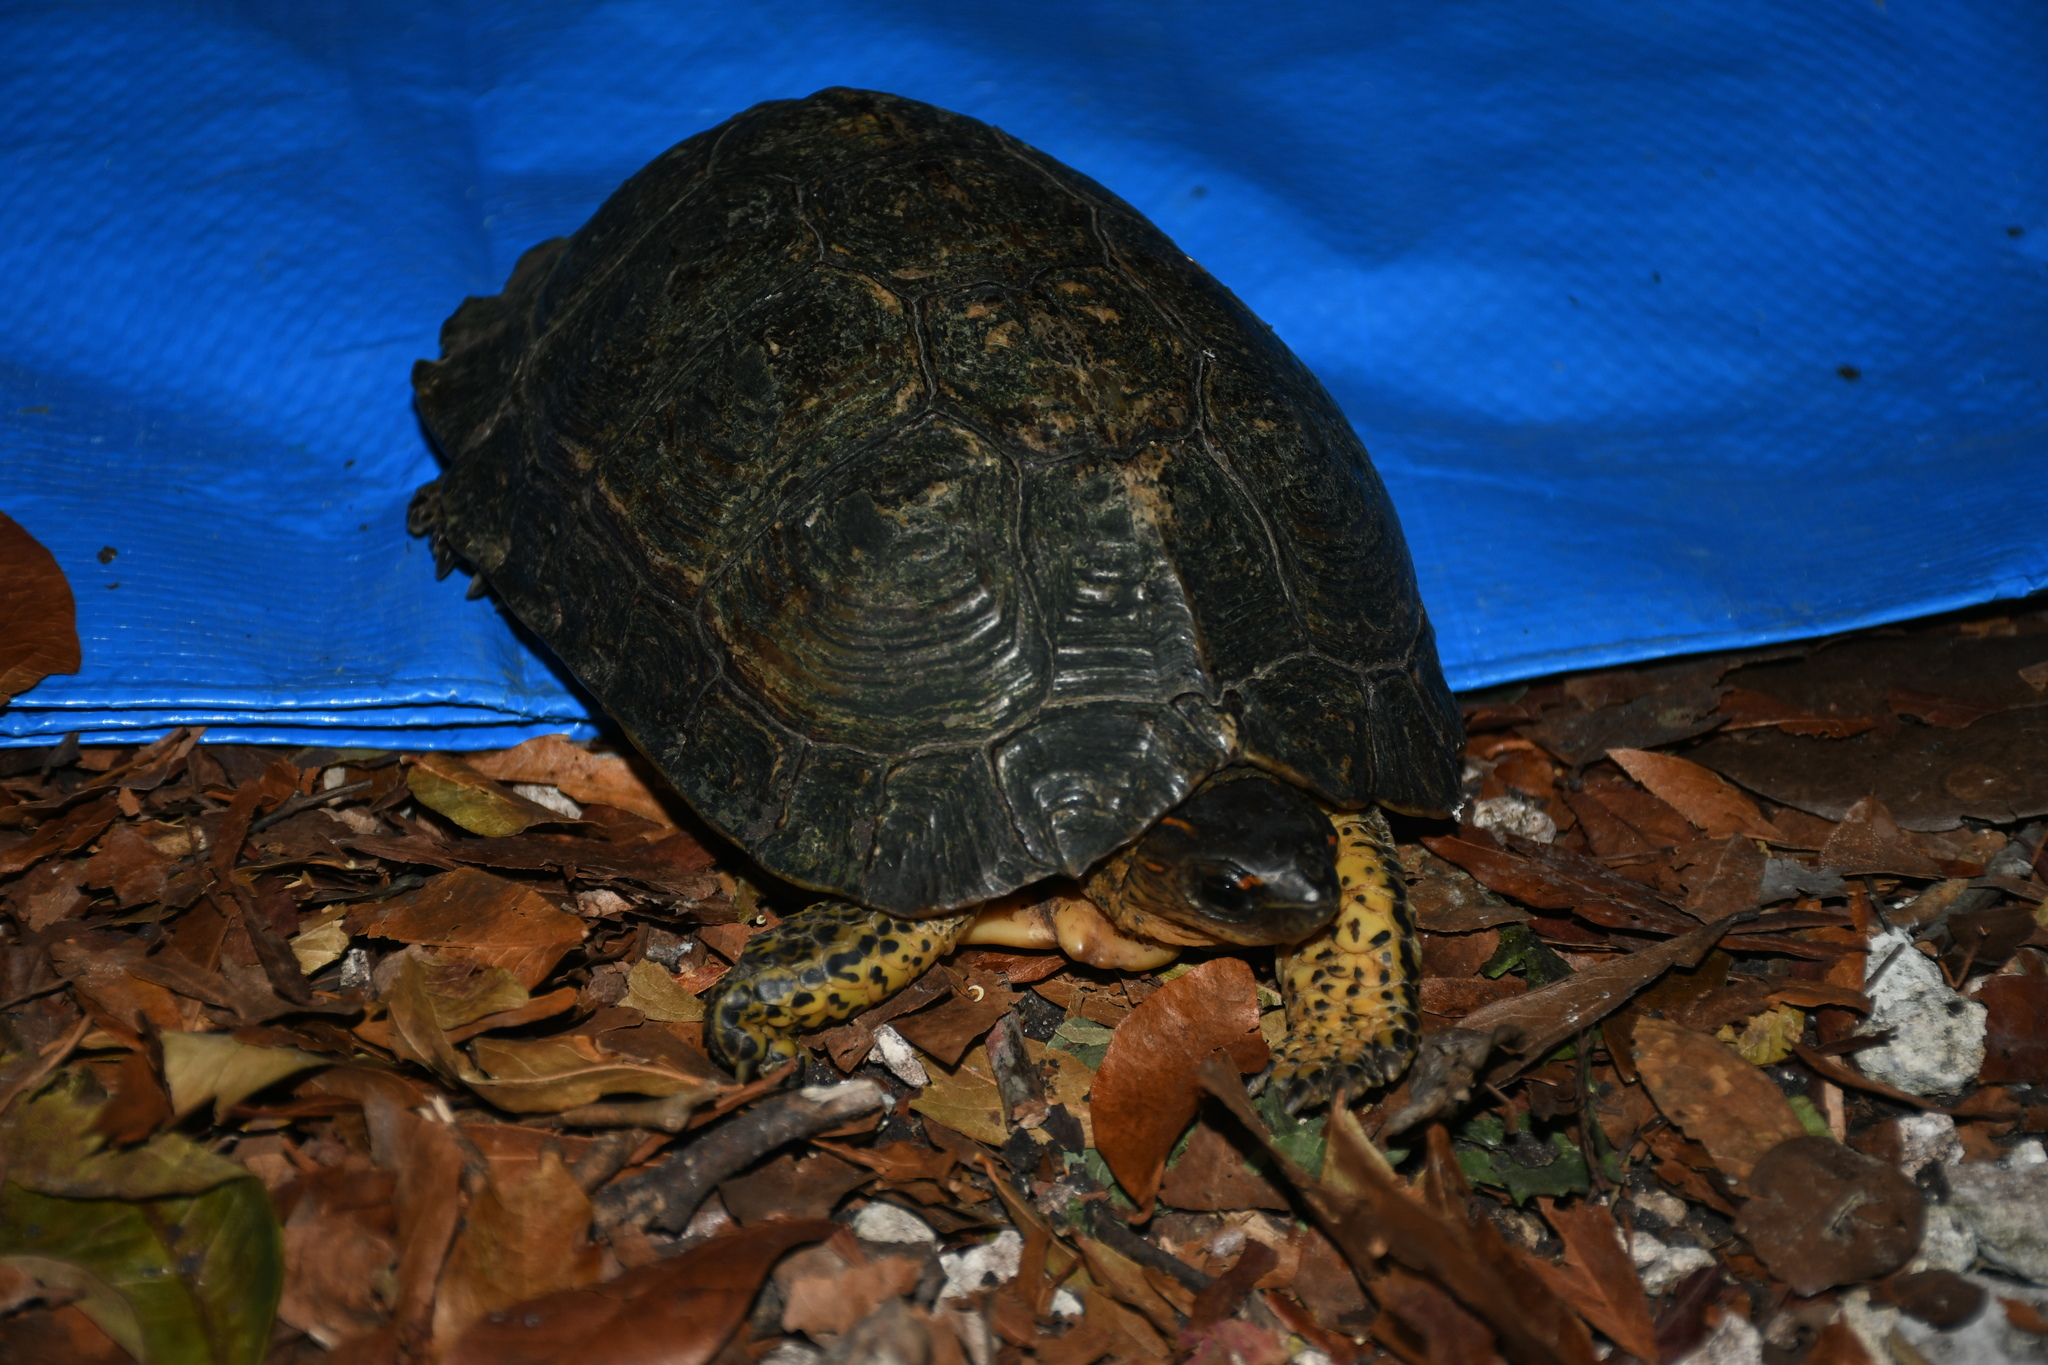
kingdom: Animalia
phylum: Chordata
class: Testudines
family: Geoemydidae
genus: Rhinoclemmys
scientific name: Rhinoclemmys areolata
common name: Furrowed wood turtle
